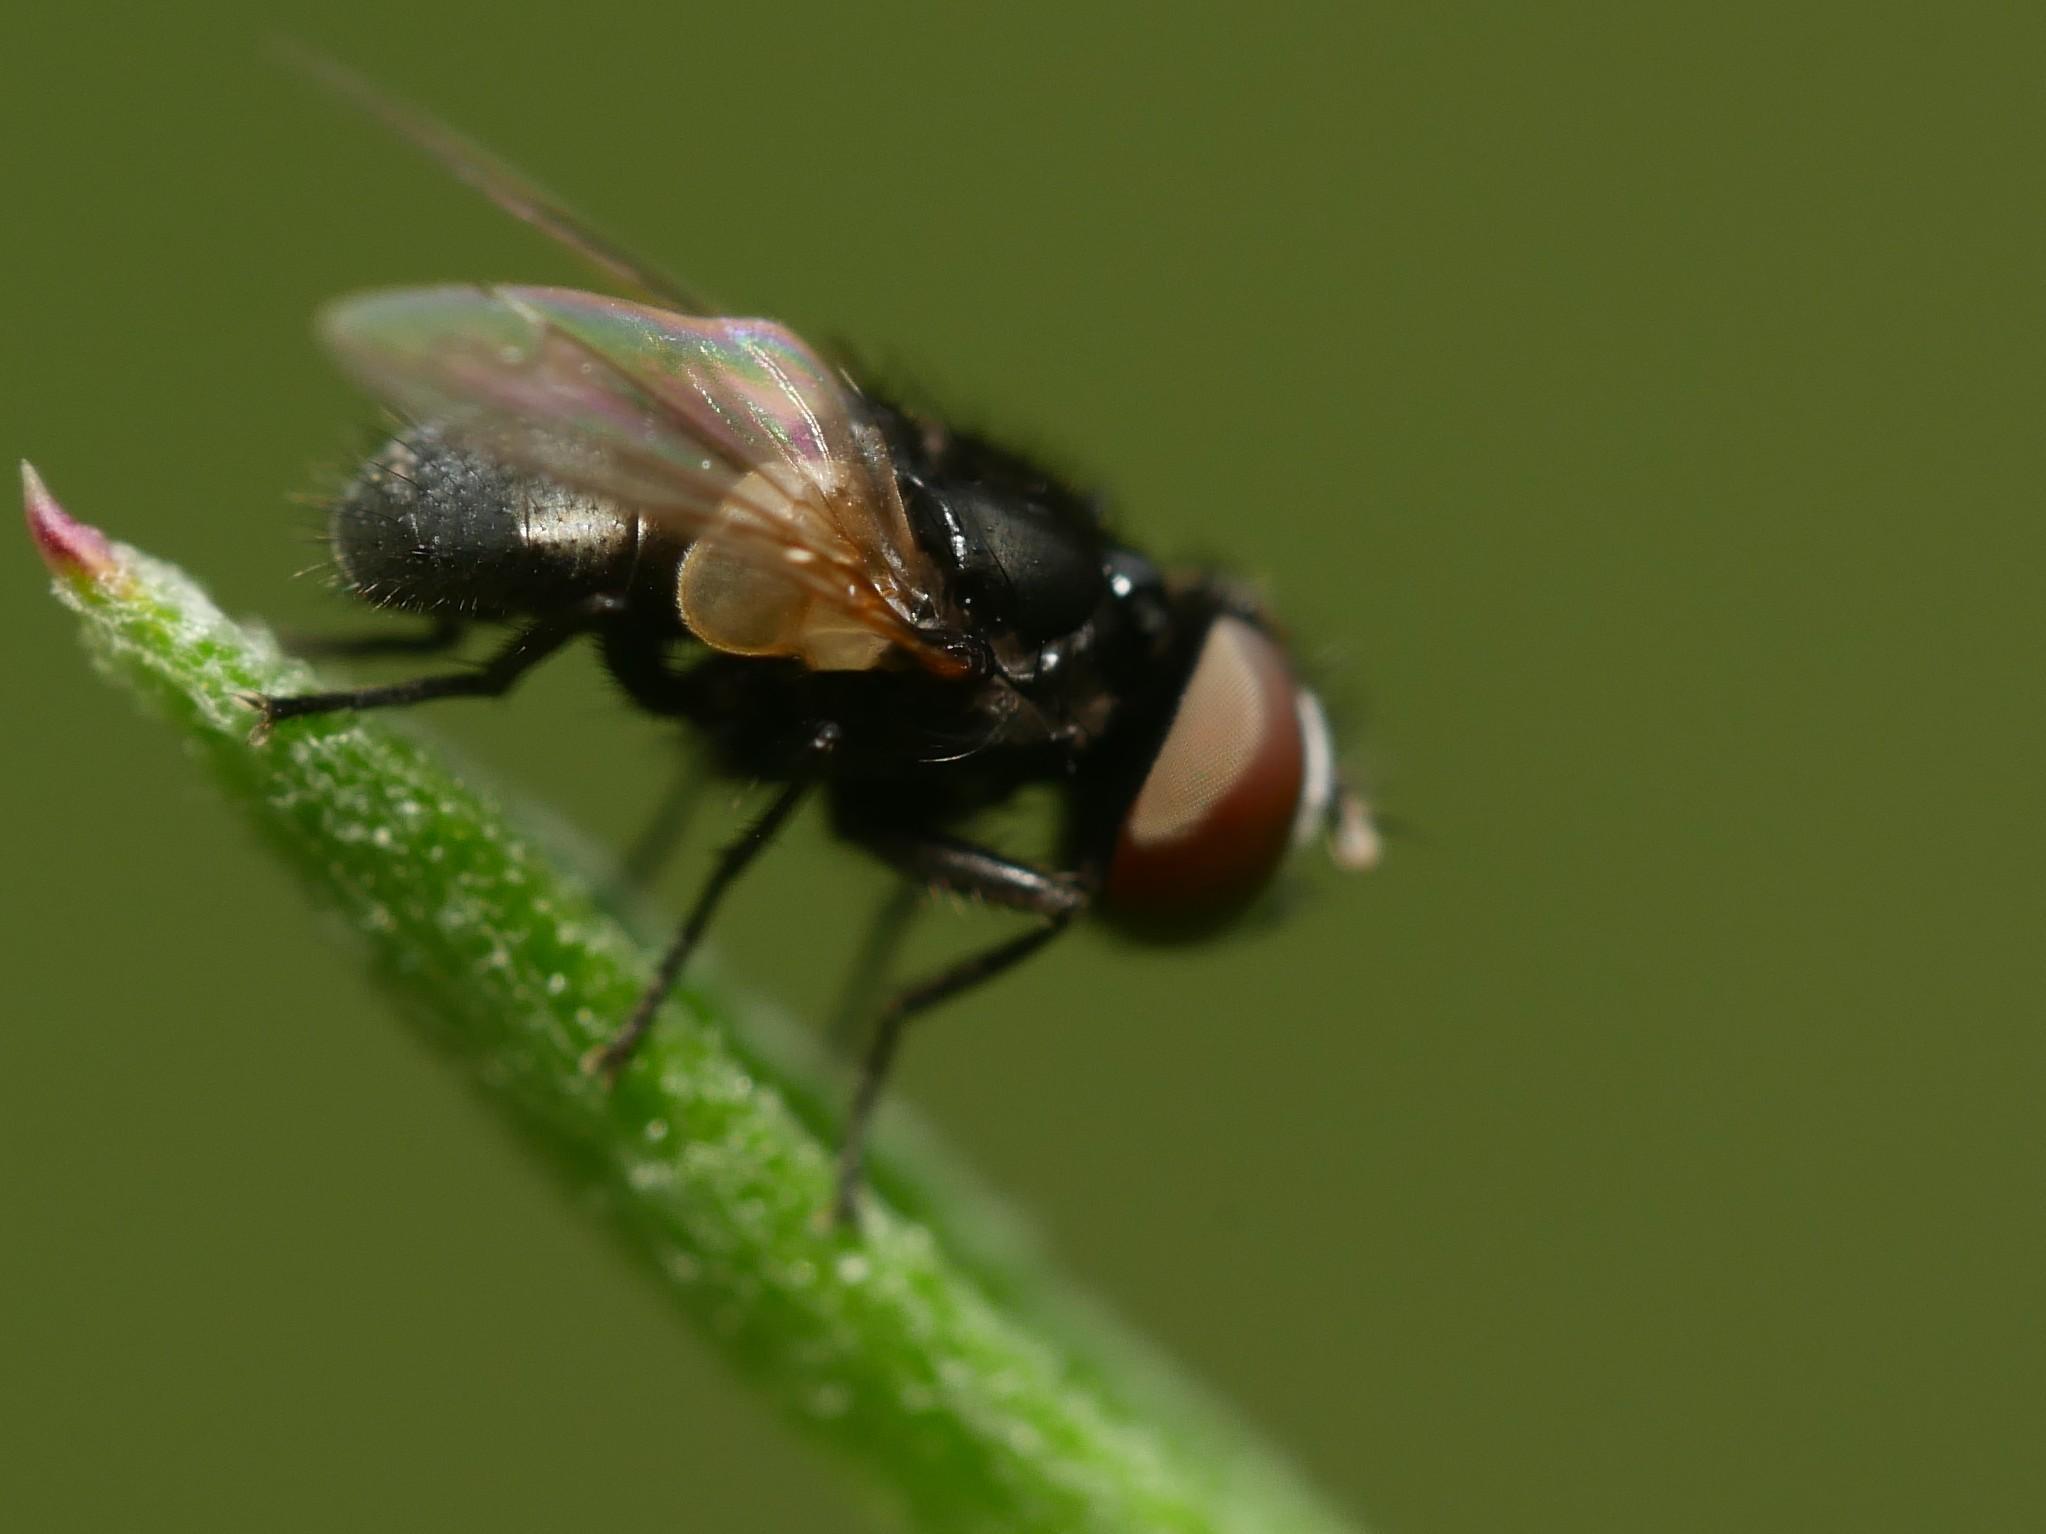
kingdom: Animalia
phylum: Arthropoda
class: Insecta
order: Diptera
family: Tachinidae
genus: Phasia
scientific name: Phasia pusilla
